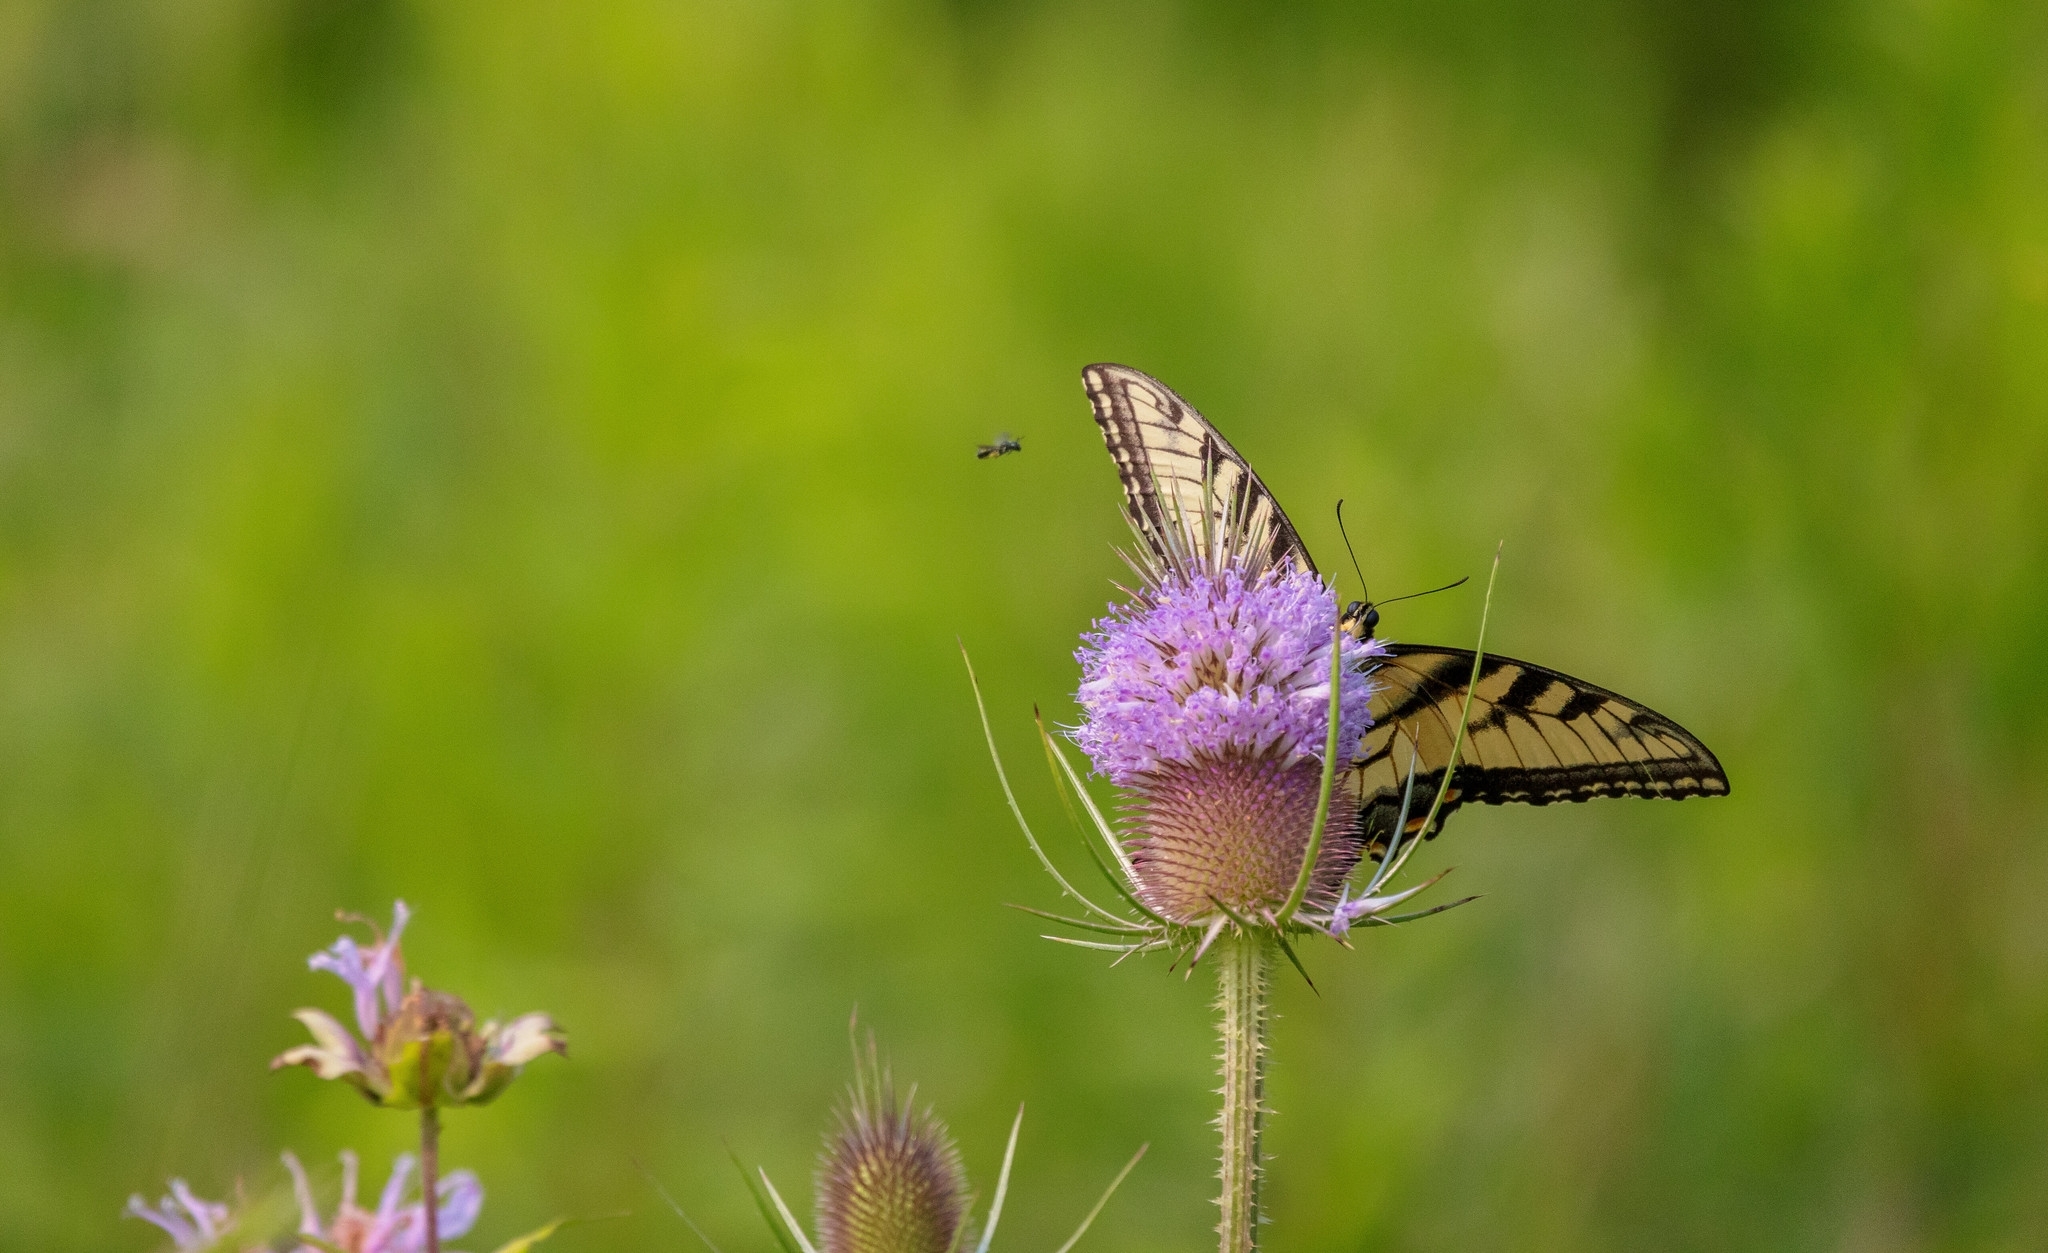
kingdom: Animalia
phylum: Arthropoda
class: Insecta
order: Lepidoptera
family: Papilionidae
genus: Papilio
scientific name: Papilio glaucus
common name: Tiger swallowtail
